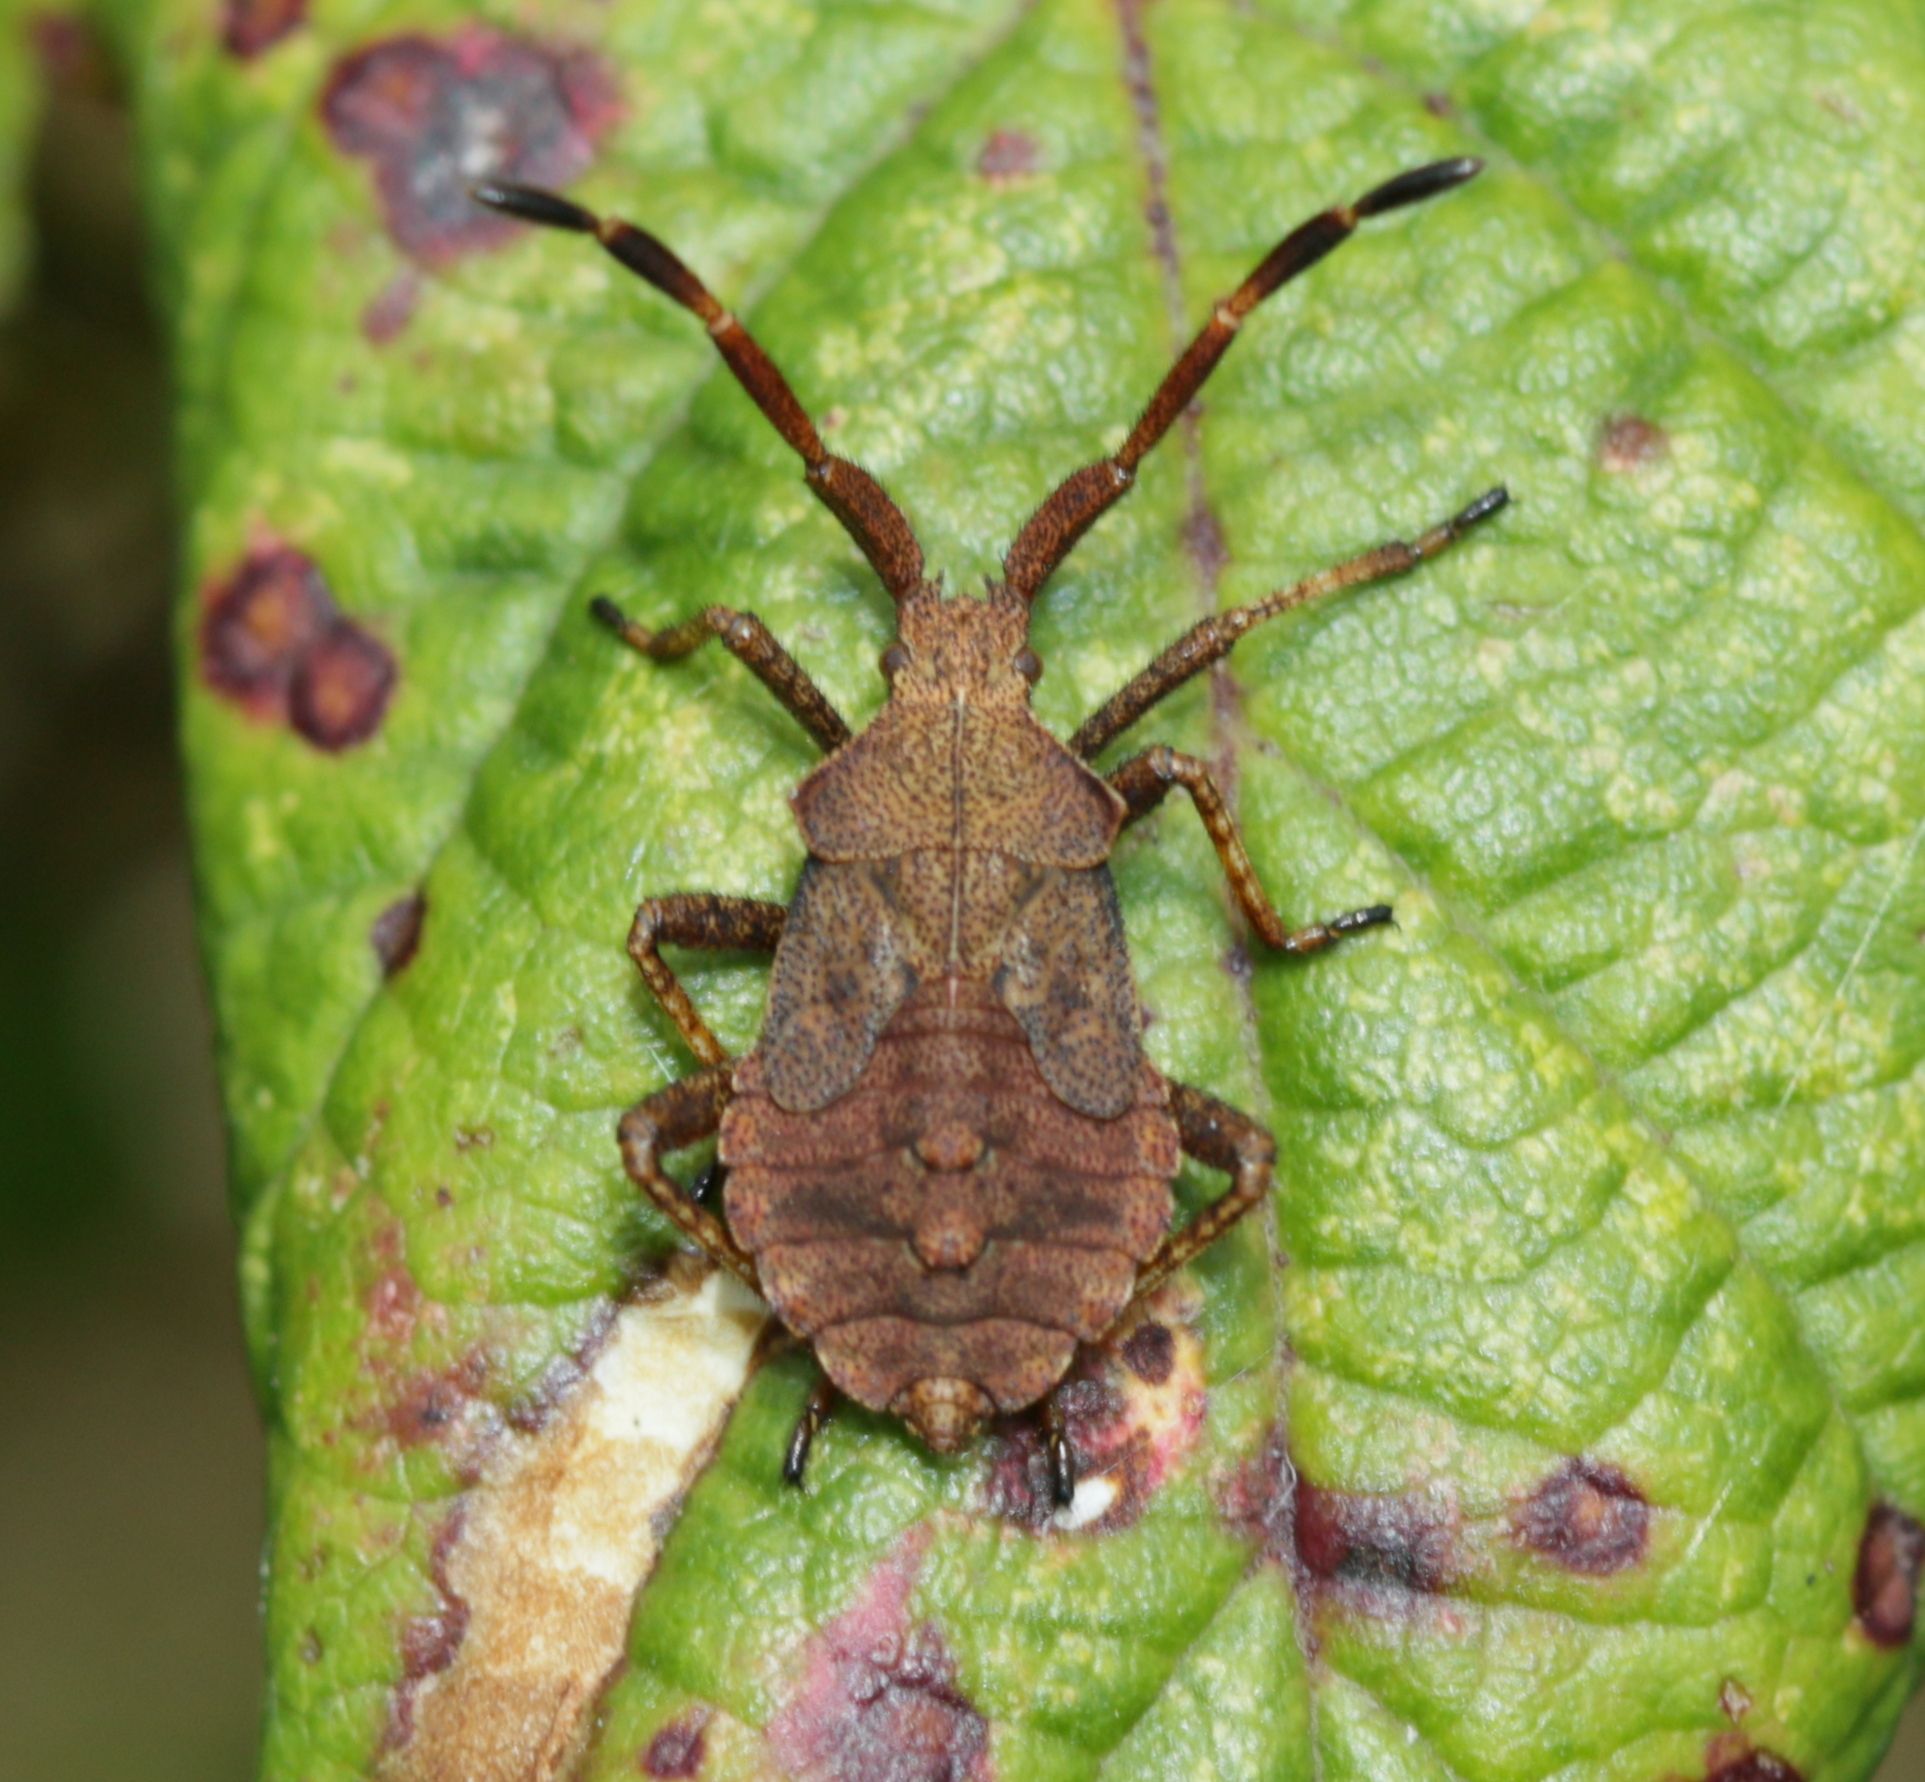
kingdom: Animalia
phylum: Arthropoda
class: Insecta
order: Hemiptera
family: Coreidae
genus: Coreus
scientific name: Coreus marginatus
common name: Dock bug
